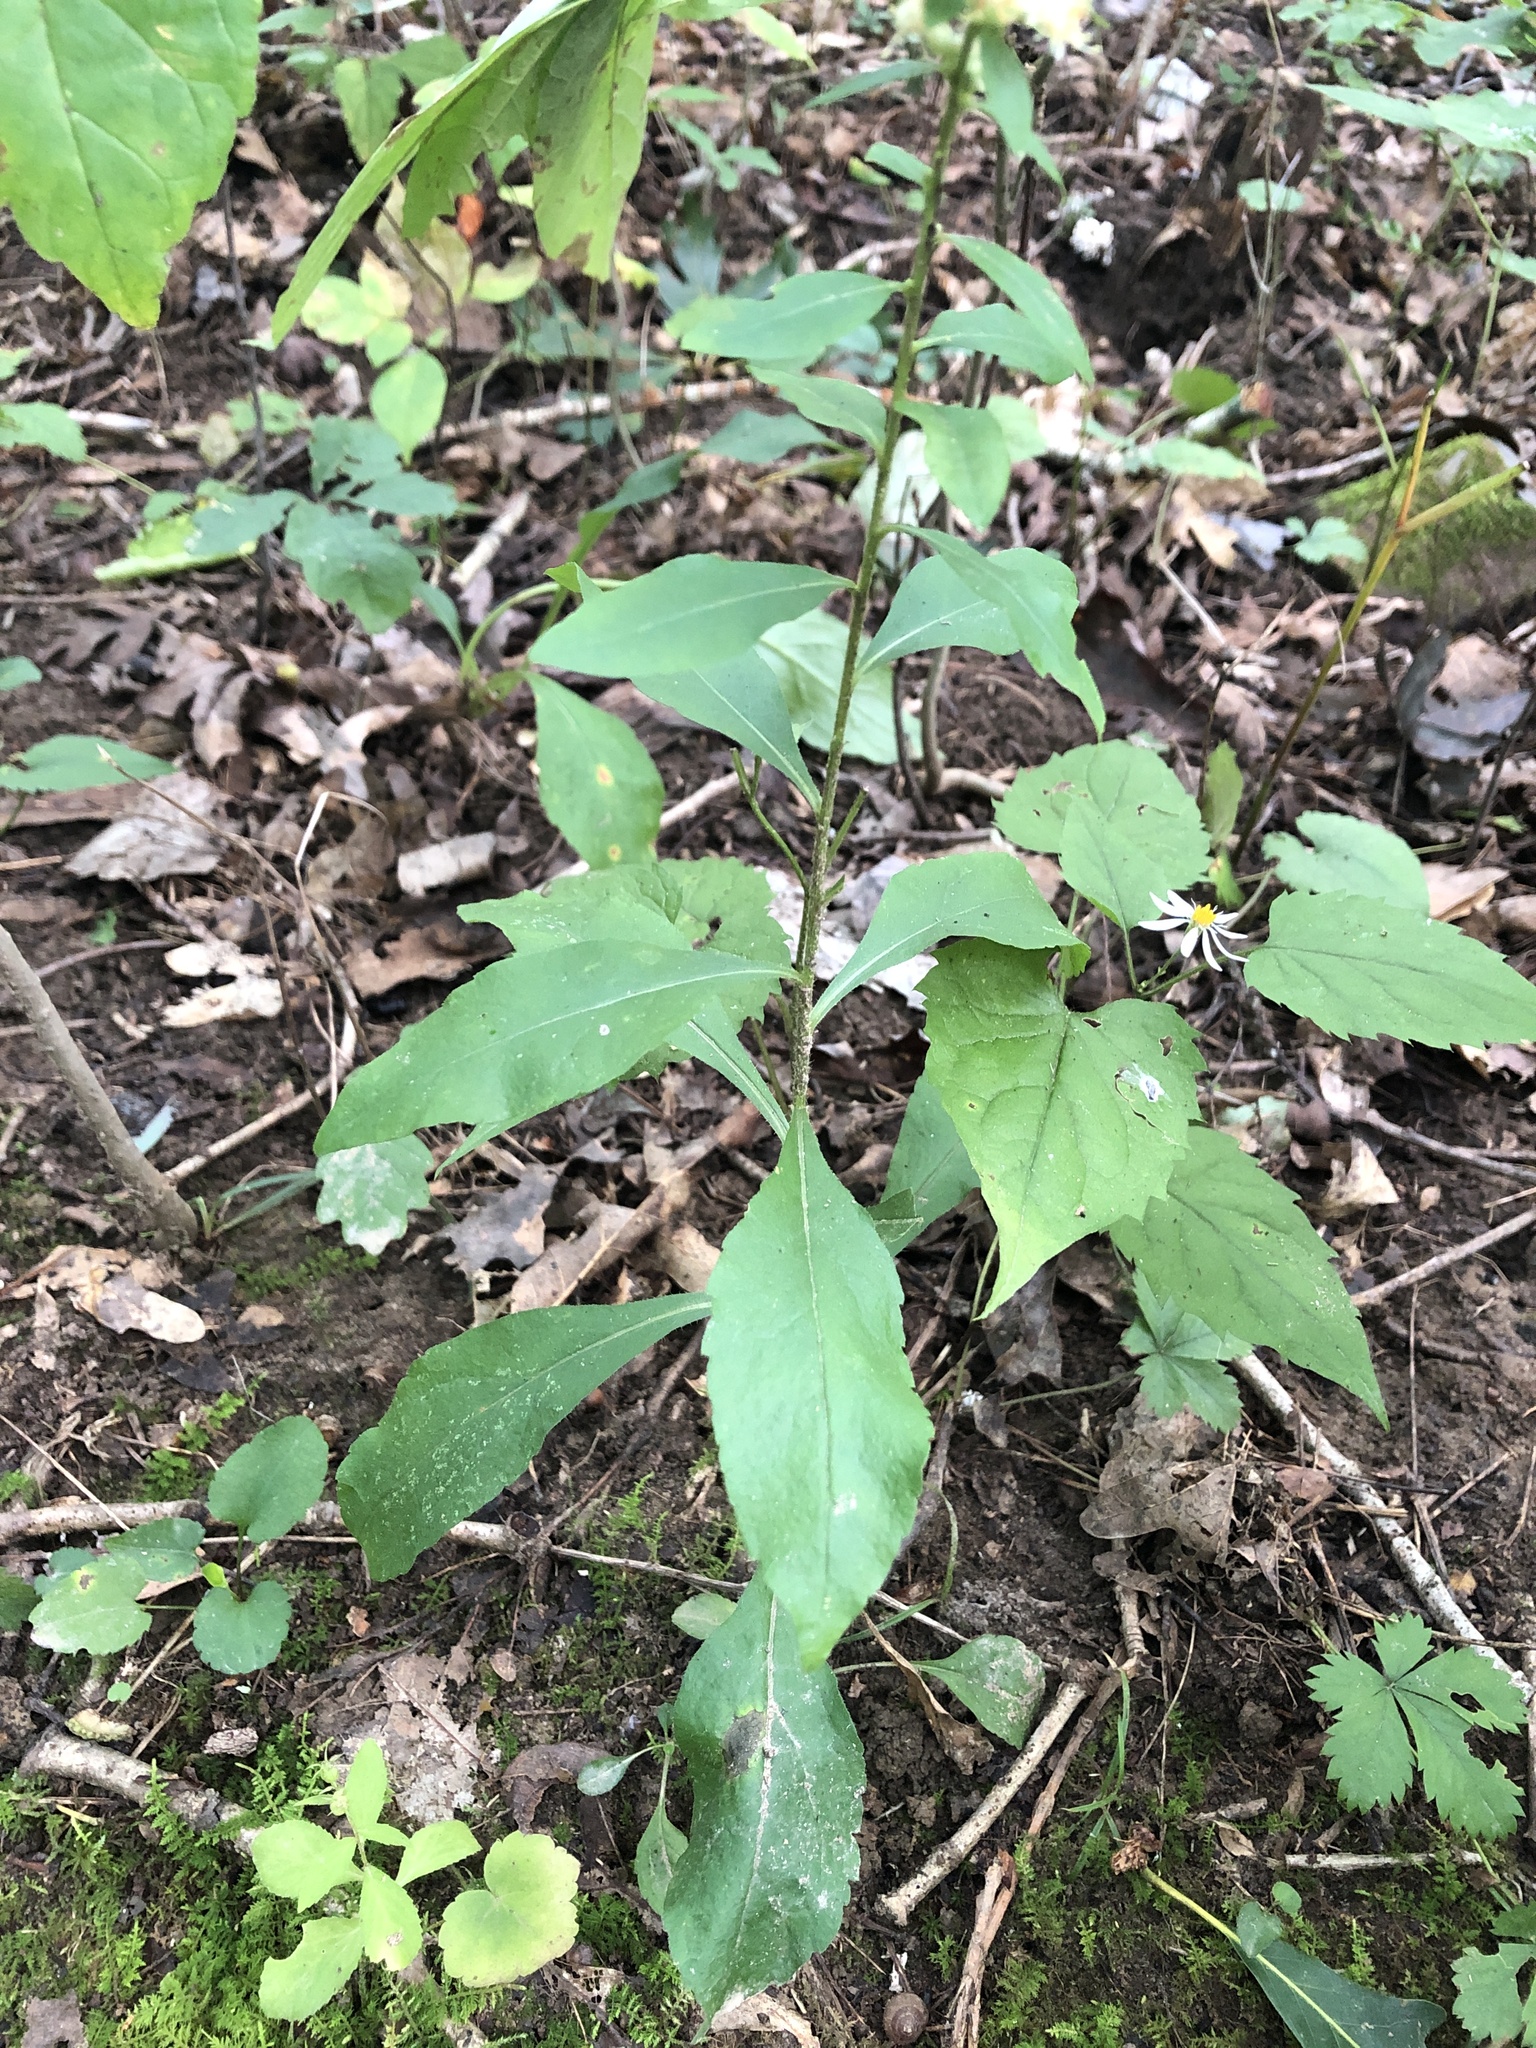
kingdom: Plantae
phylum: Tracheophyta
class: Magnoliopsida
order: Asterales
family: Asteraceae
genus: Solidago
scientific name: Solidago bicolor
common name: Silverrod
